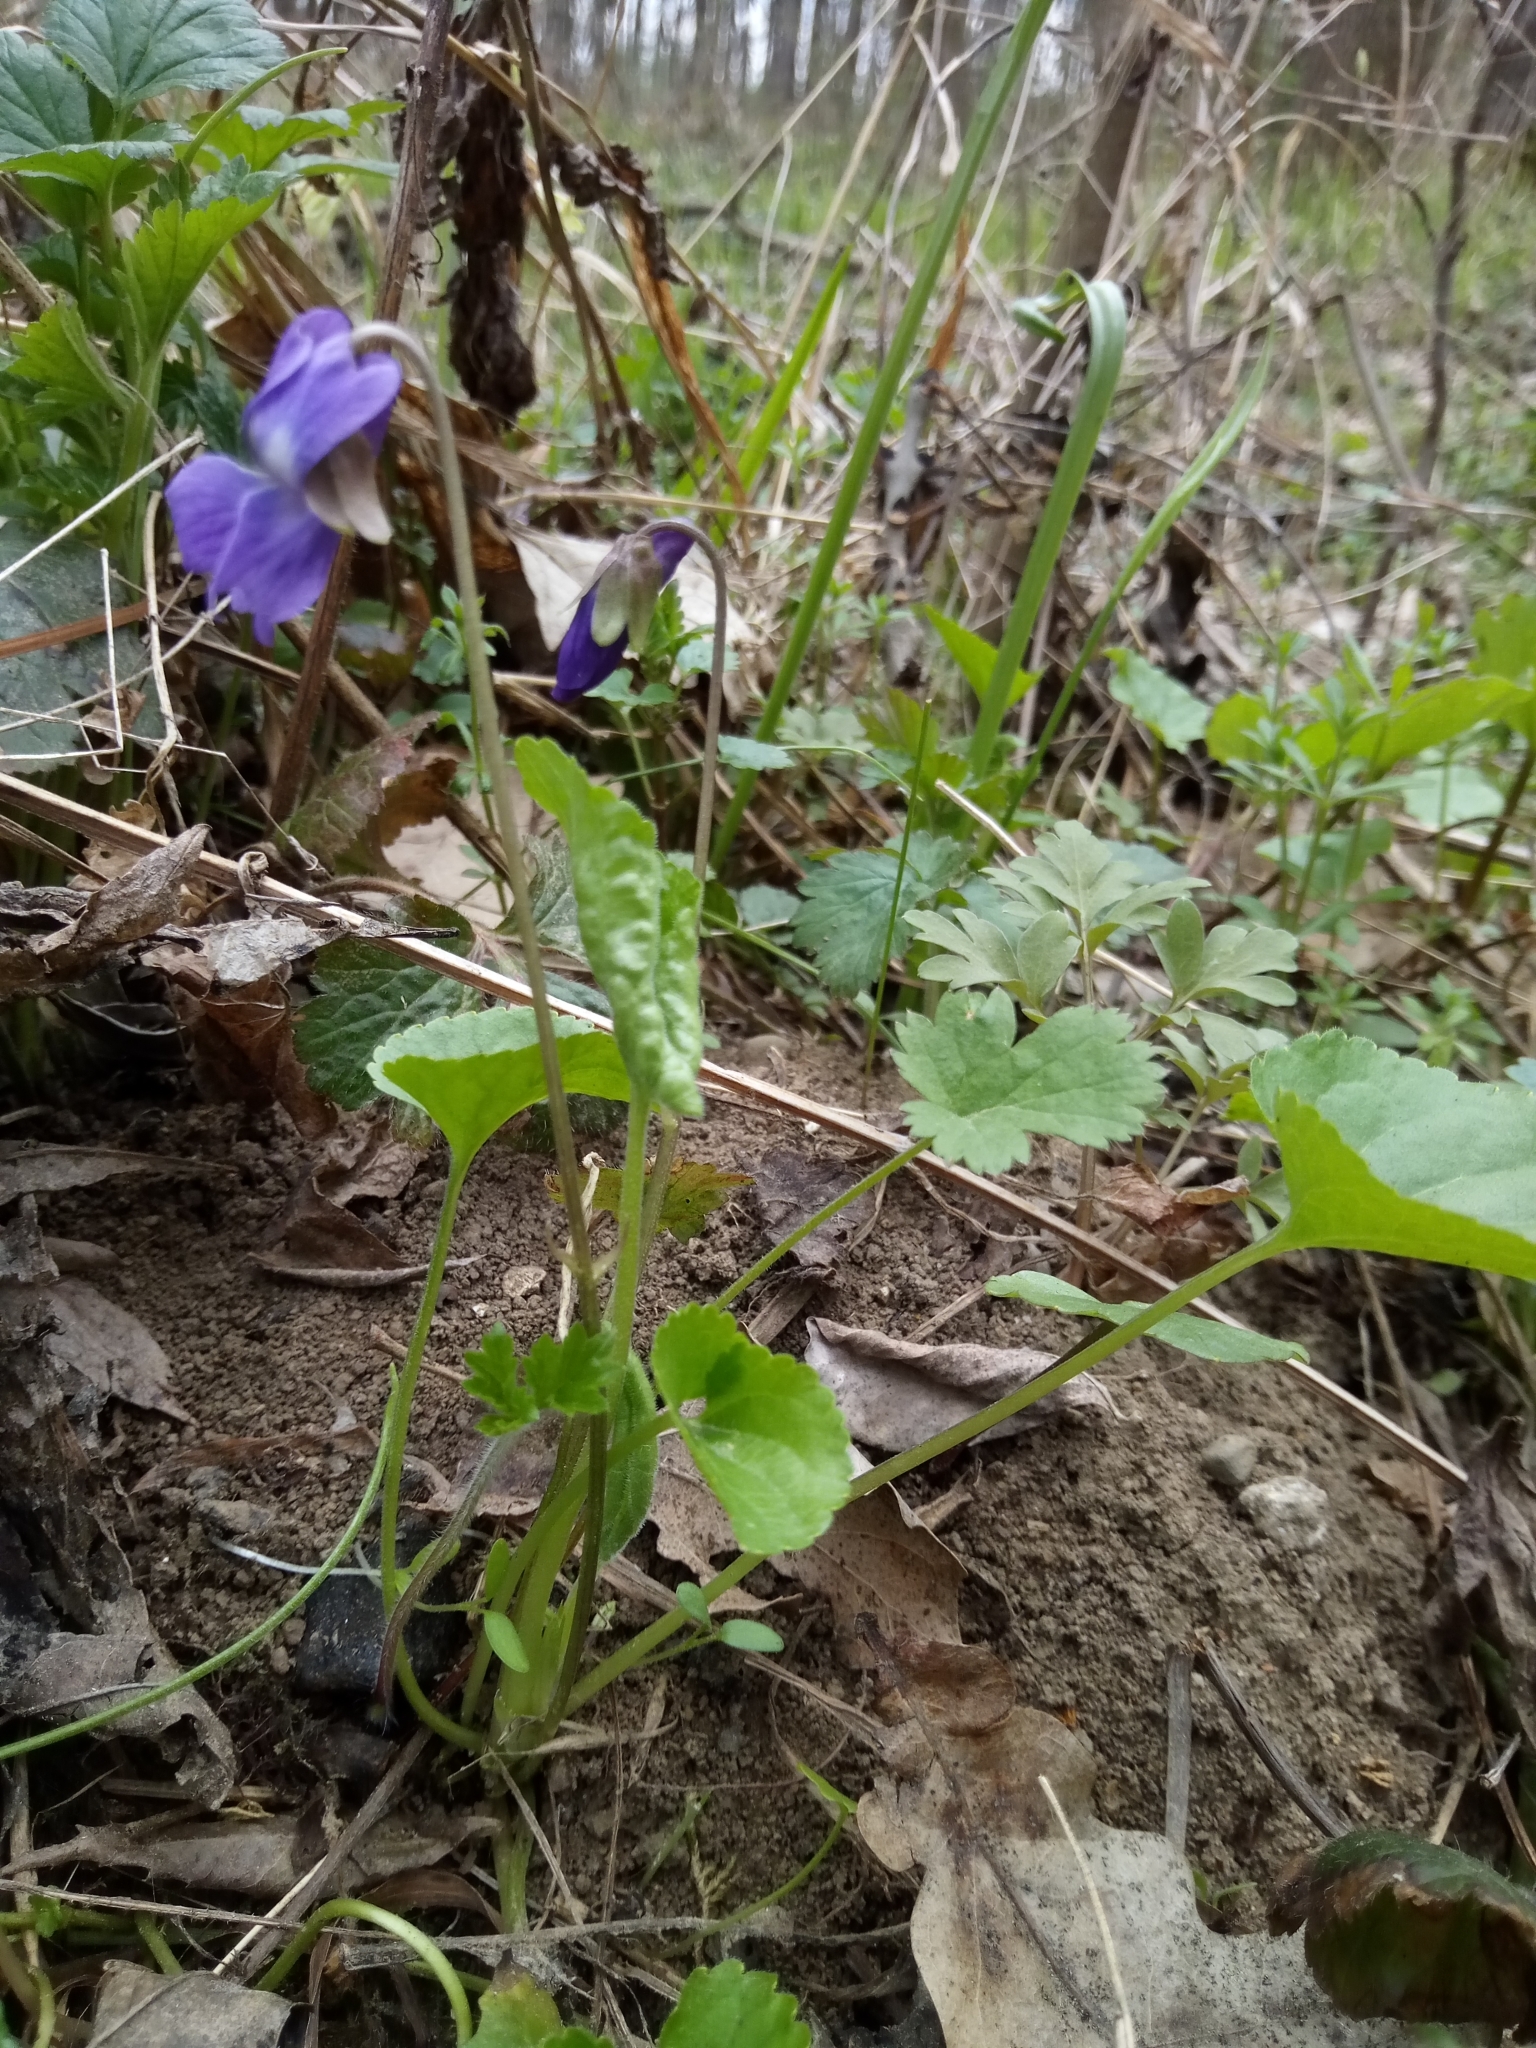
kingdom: Plantae
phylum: Tracheophyta
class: Magnoliopsida
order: Malpighiales
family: Violaceae
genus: Viola
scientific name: Viola odorata
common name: Sweet violet
